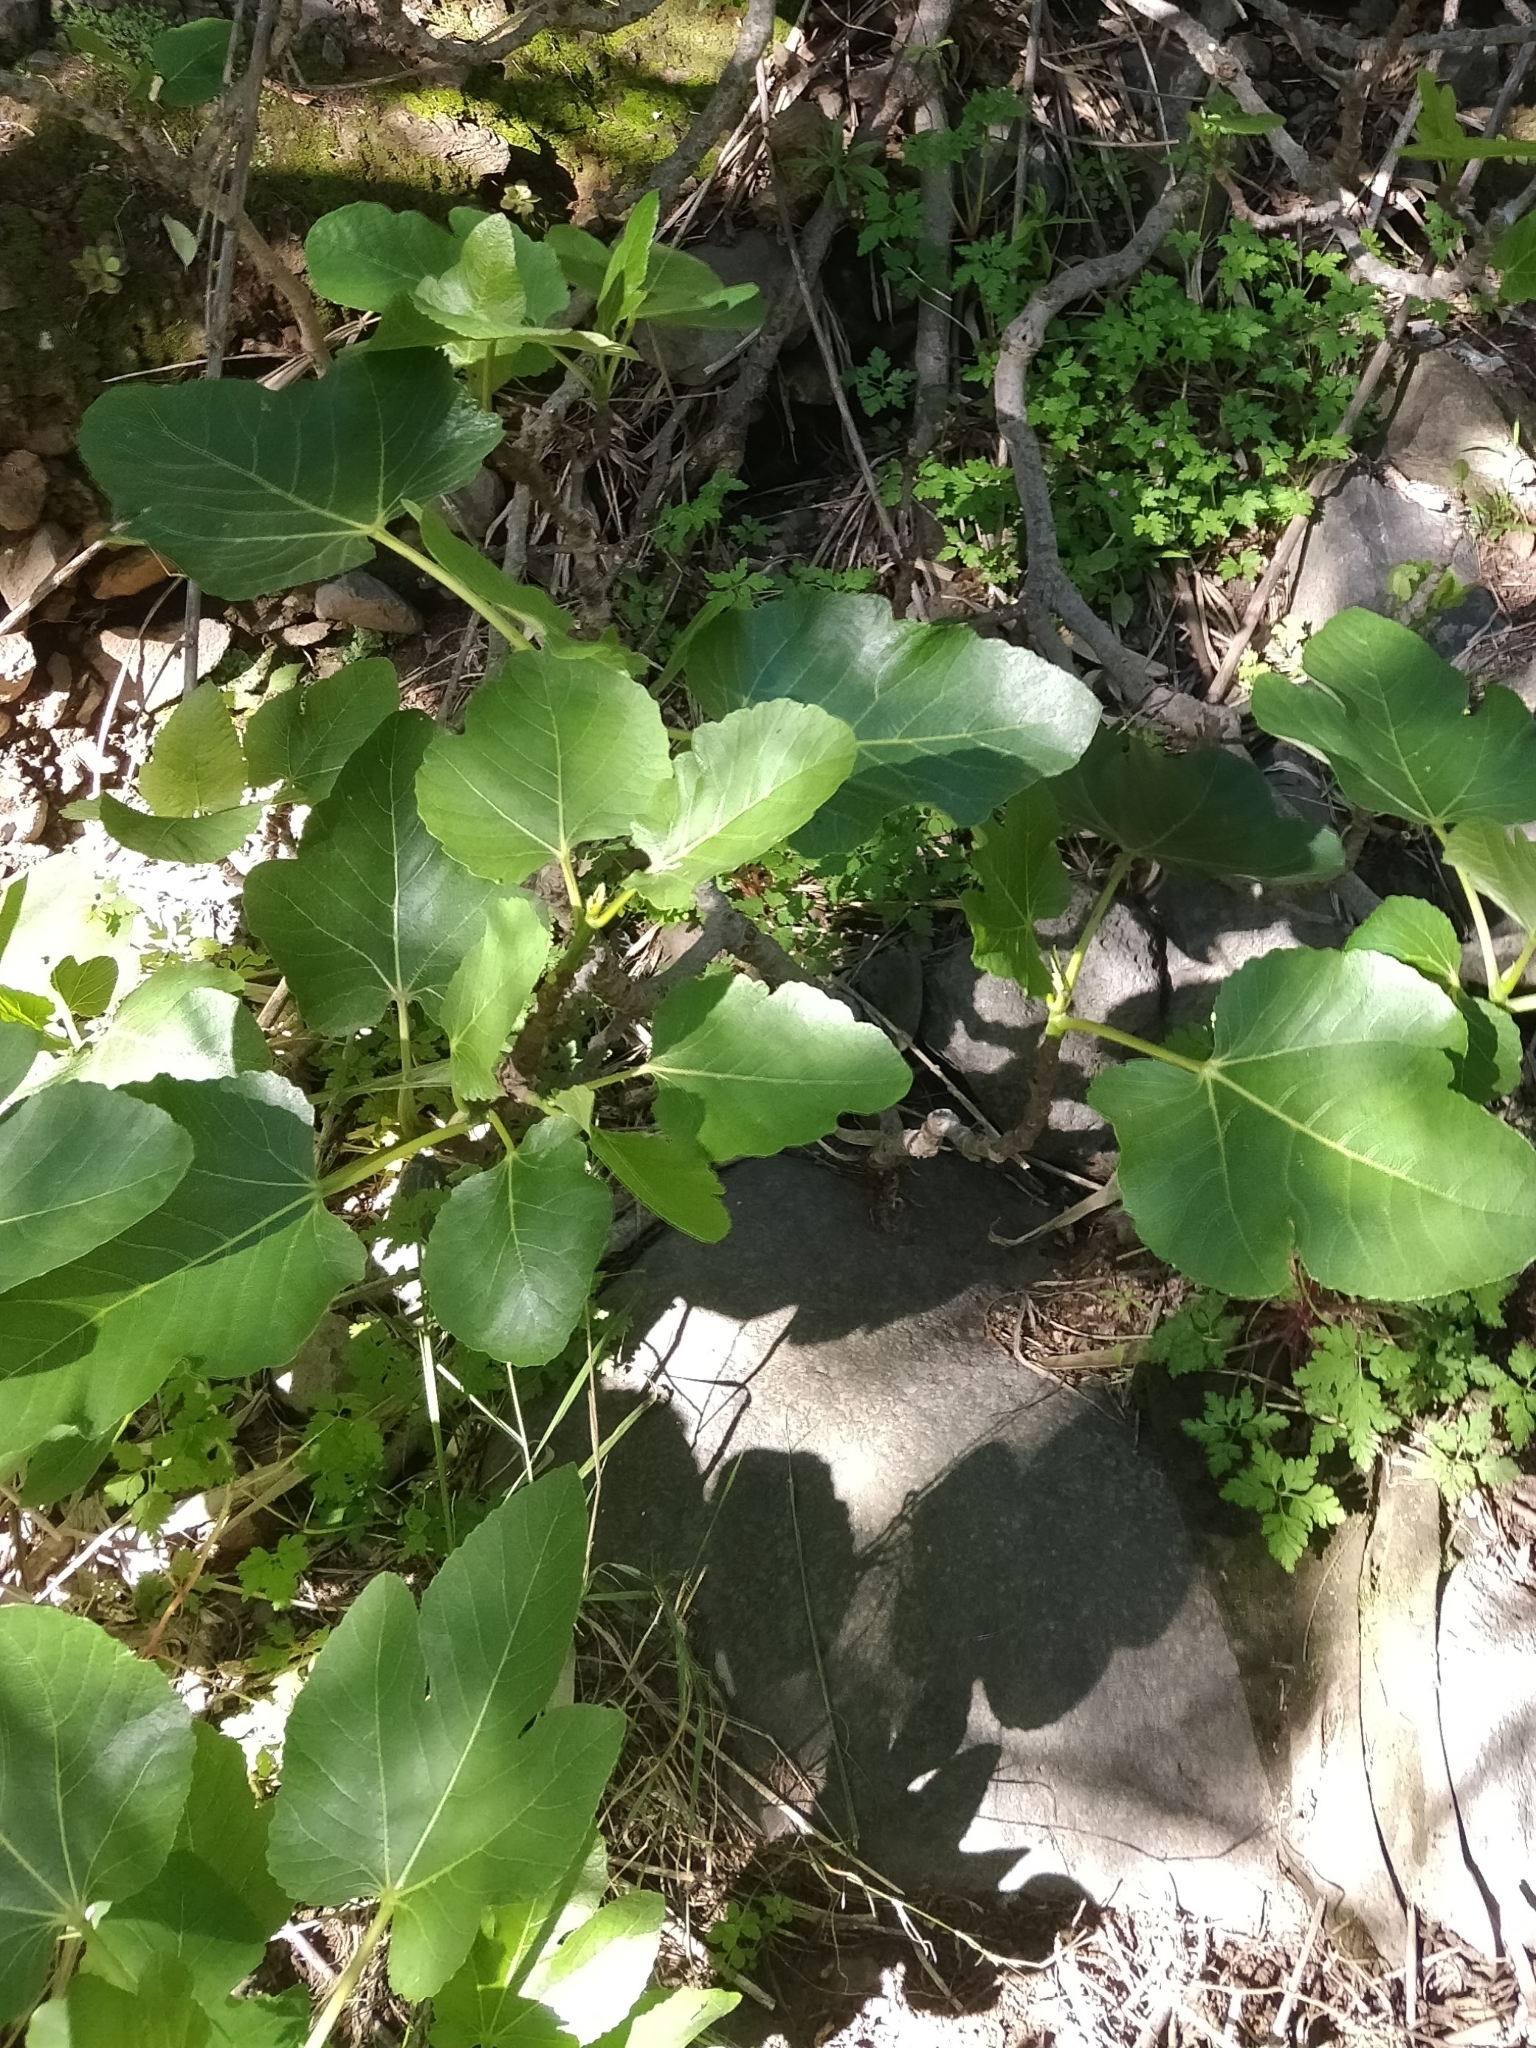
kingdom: Plantae
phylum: Tracheophyta
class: Magnoliopsida
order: Rosales
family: Moraceae
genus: Ficus
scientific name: Ficus carica
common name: Fig
